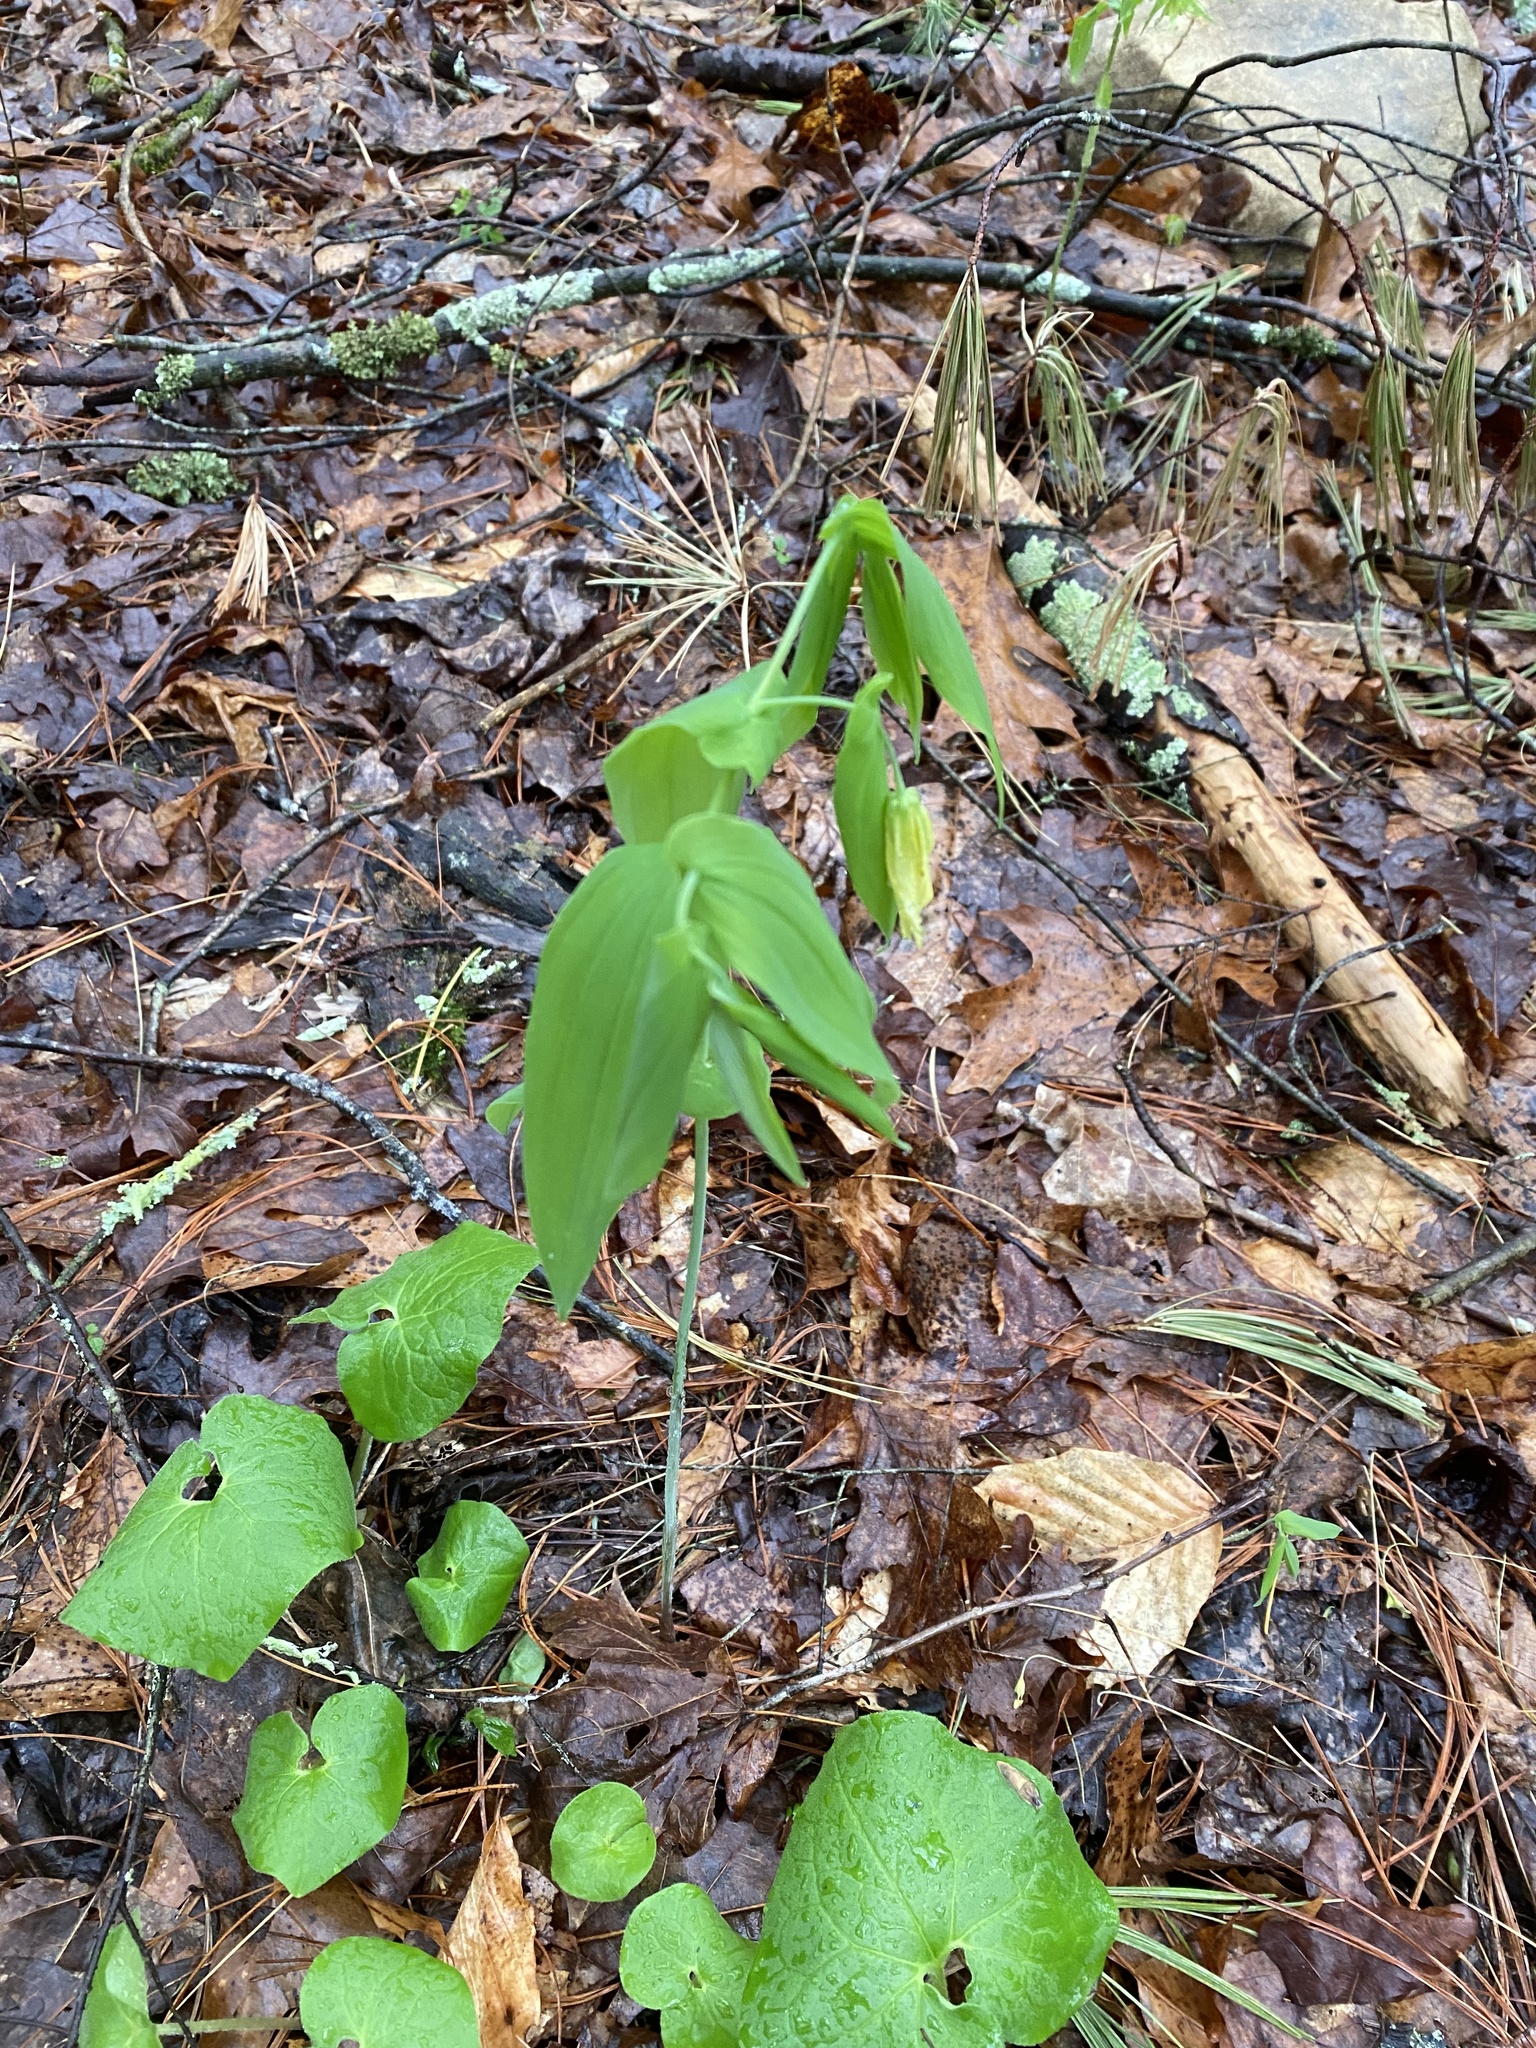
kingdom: Plantae
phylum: Tracheophyta
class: Liliopsida
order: Liliales
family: Colchicaceae
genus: Uvularia
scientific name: Uvularia grandiflora
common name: Bellwort
